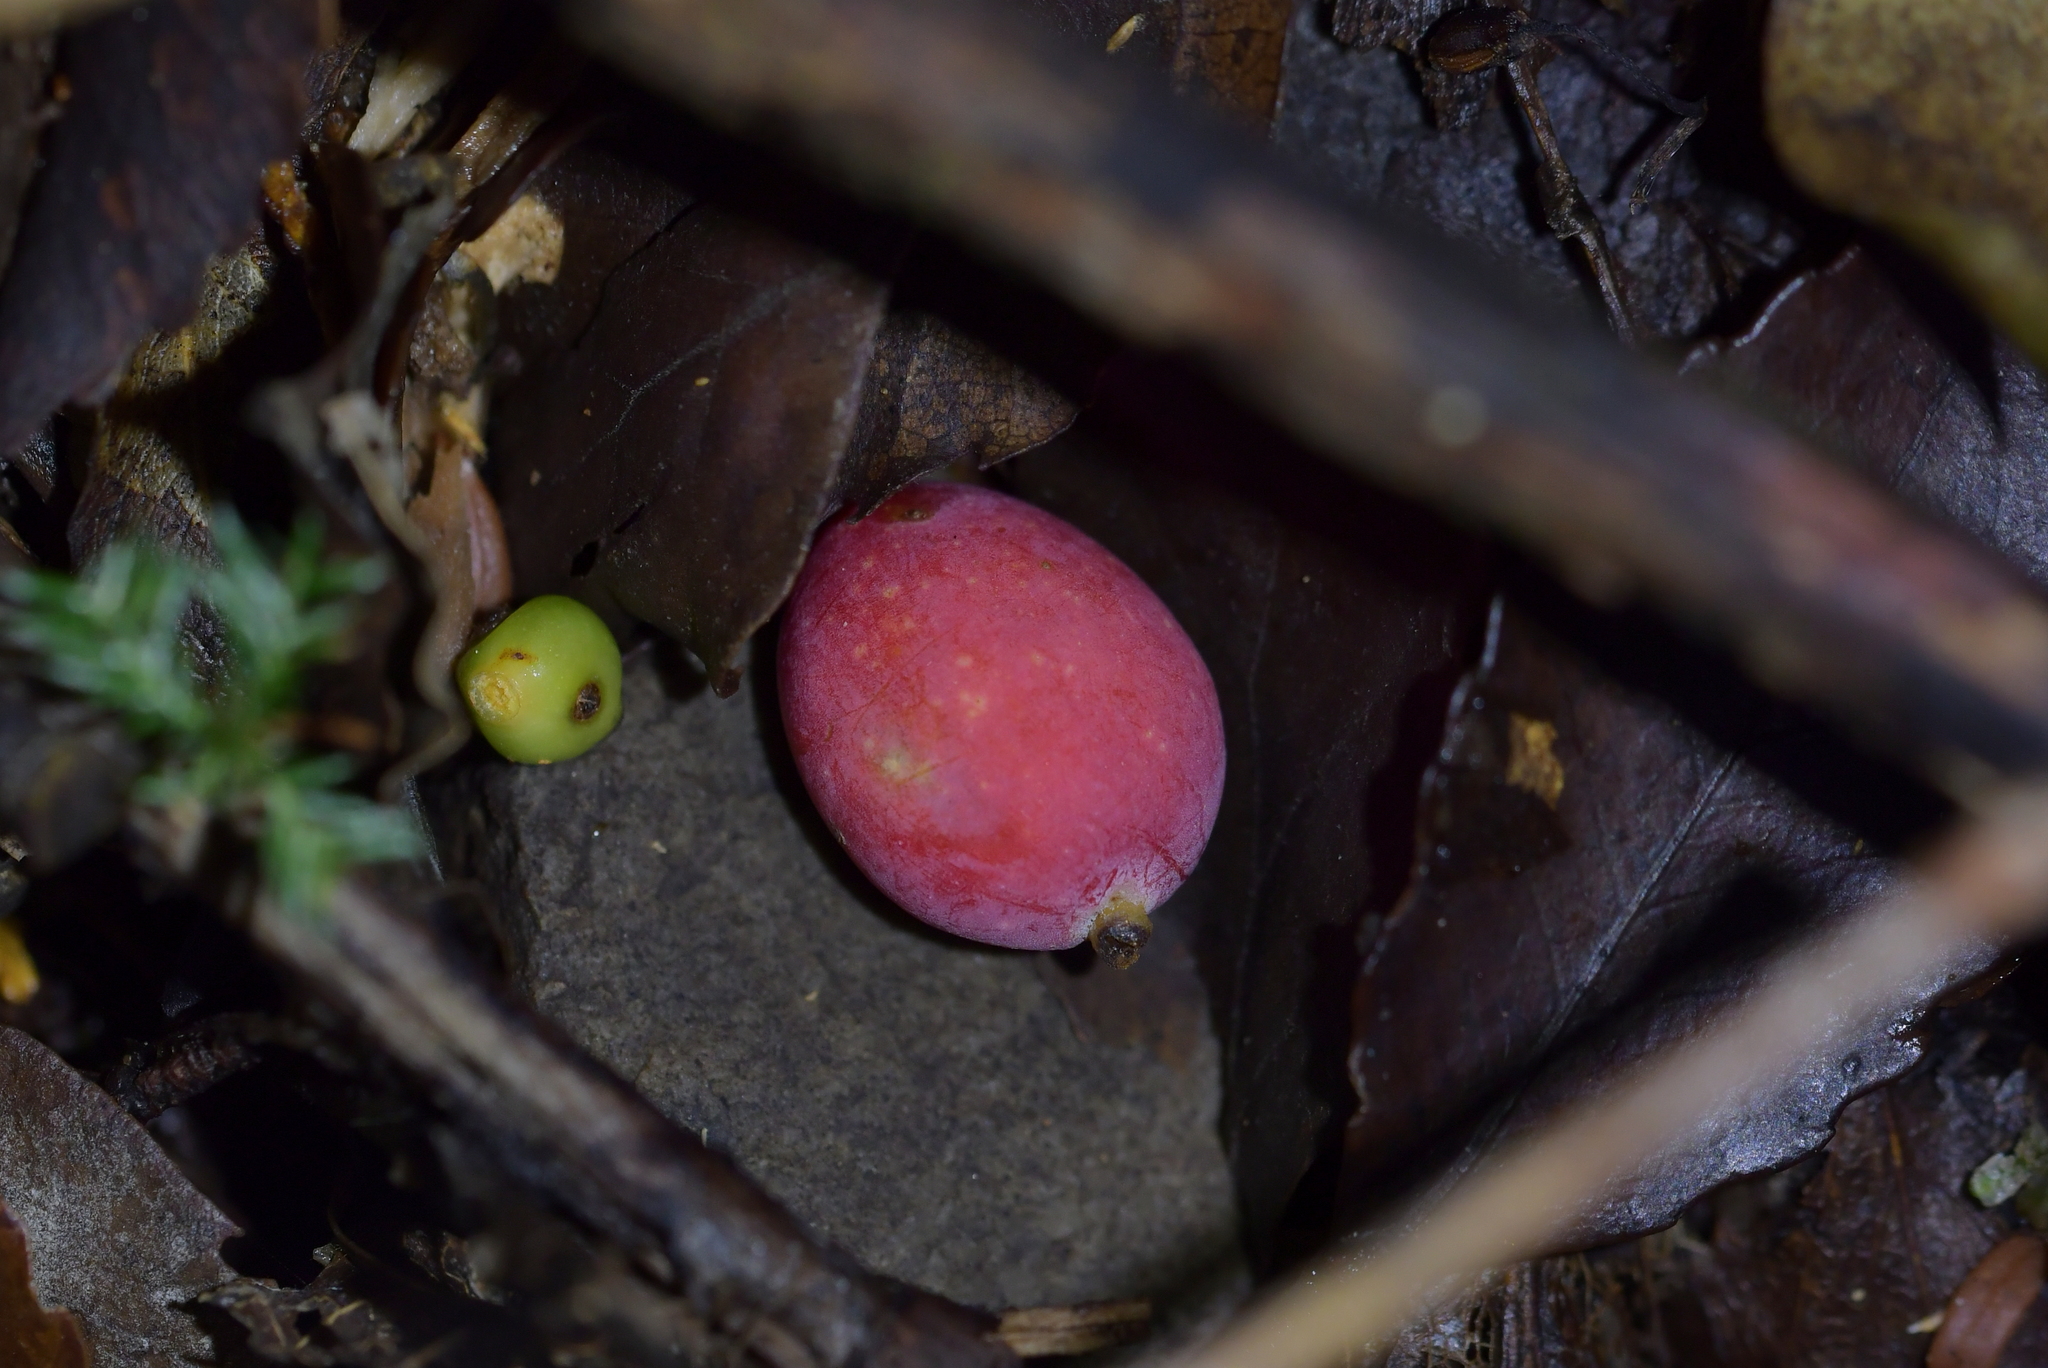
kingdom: Plantae
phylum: Tracheophyta
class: Pinopsida
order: Pinales
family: Podocarpaceae
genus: Prumnopitys
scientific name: Prumnopitys ferruginea
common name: Brown pine
